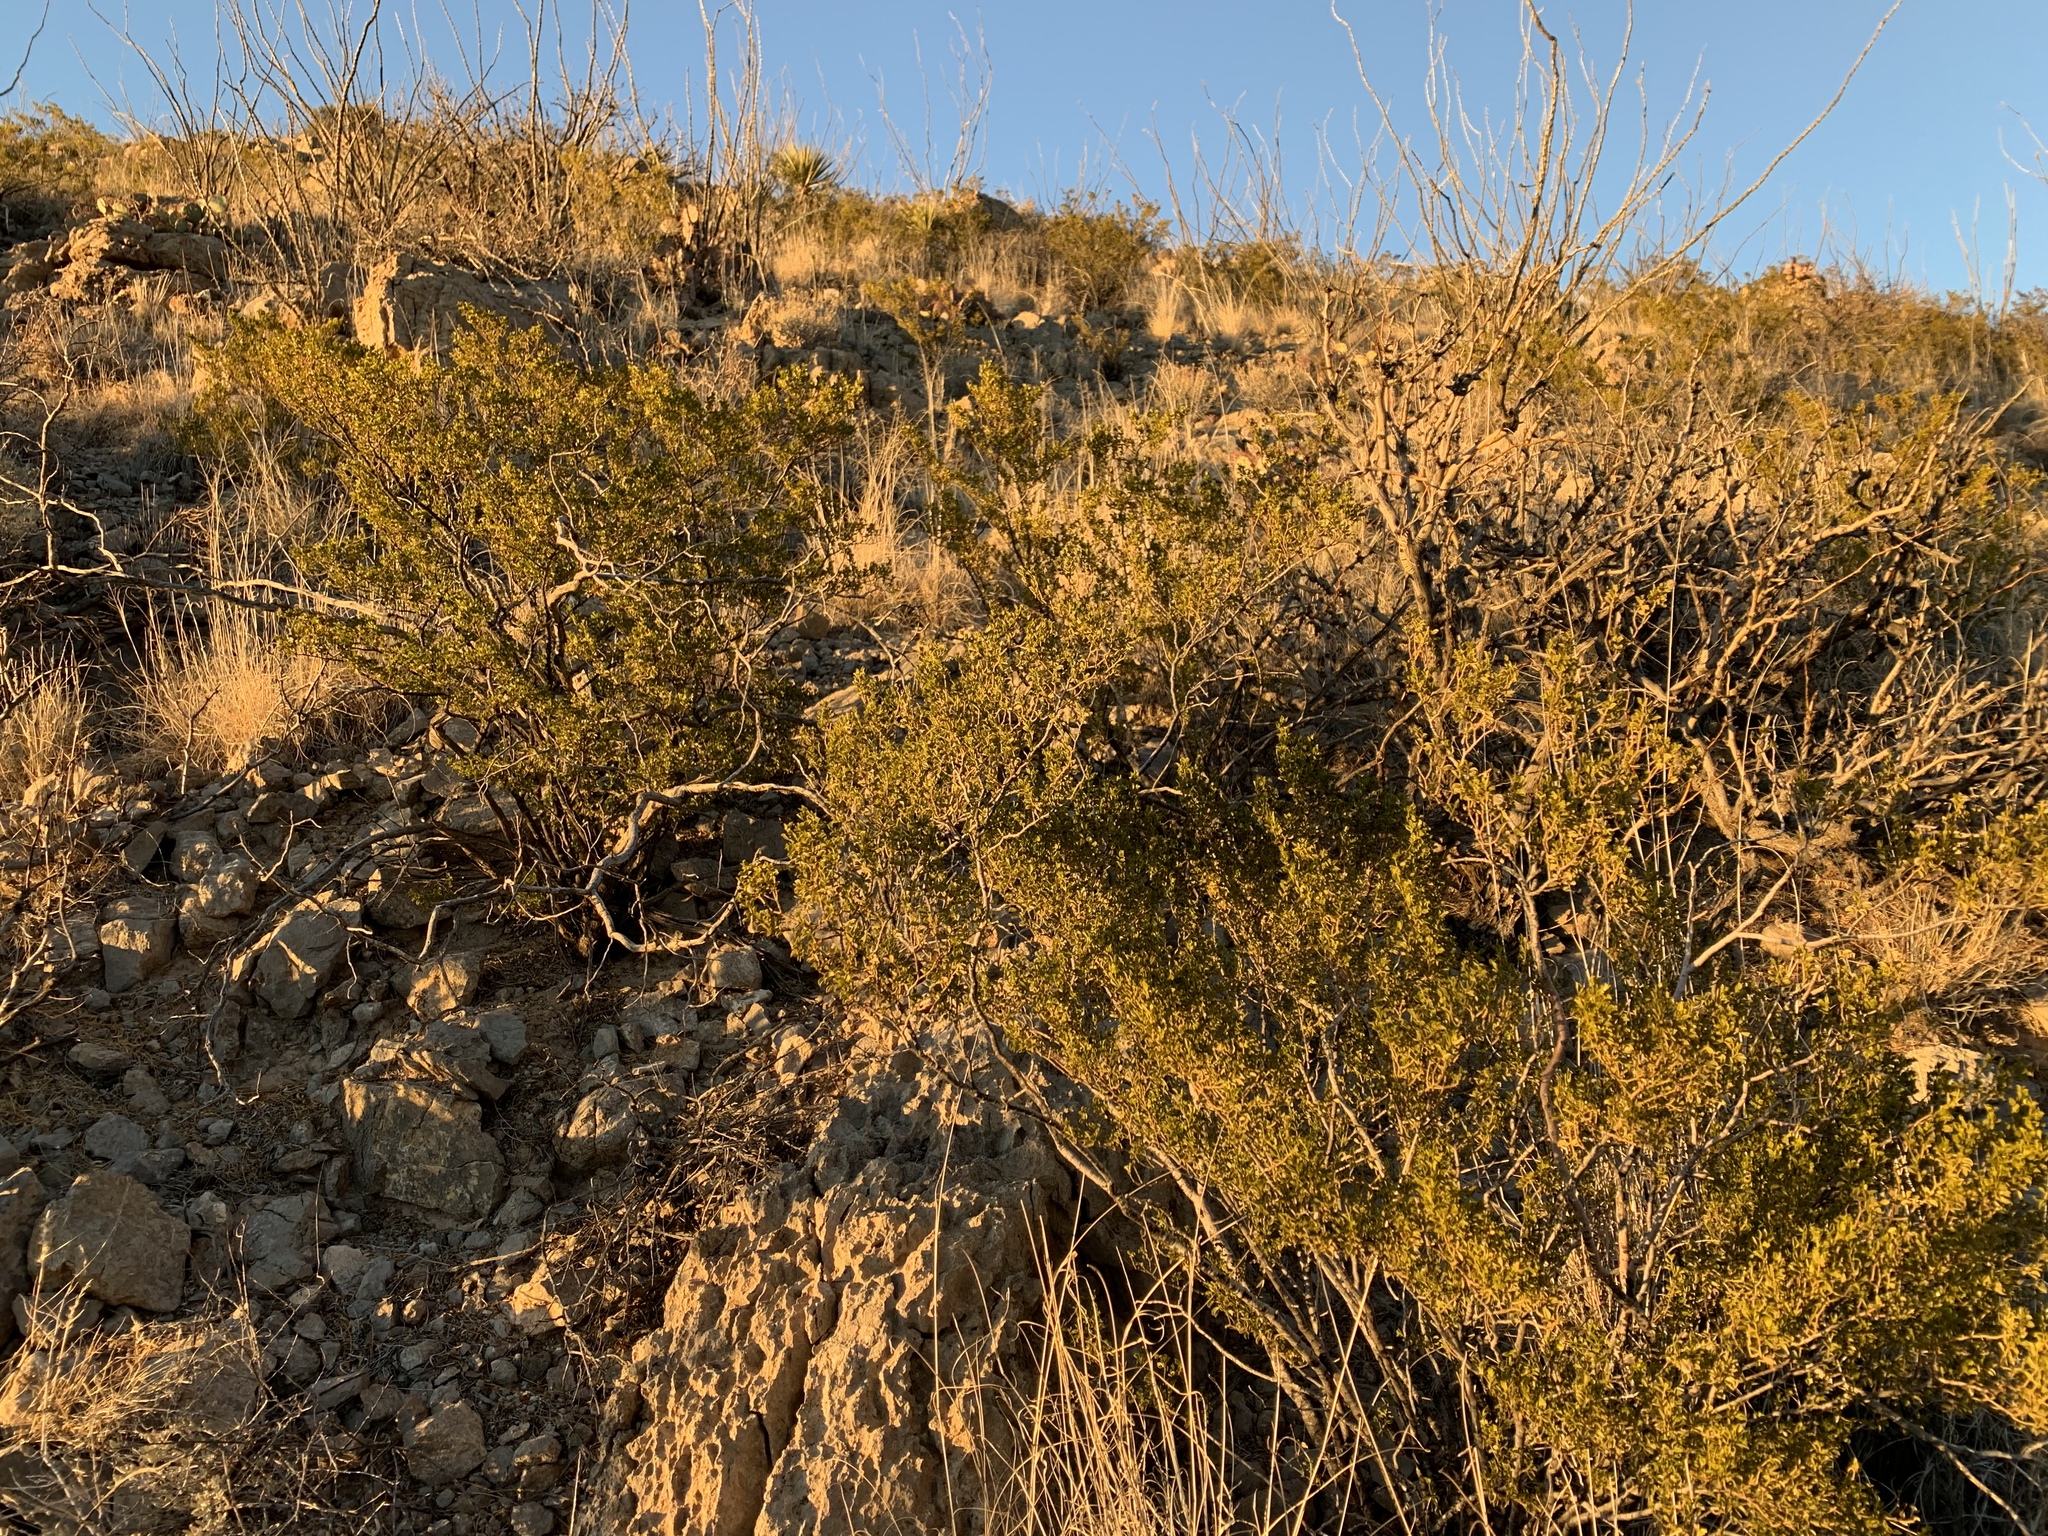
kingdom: Plantae
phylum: Tracheophyta
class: Magnoliopsida
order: Zygophyllales
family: Zygophyllaceae
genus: Larrea
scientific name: Larrea tridentata
